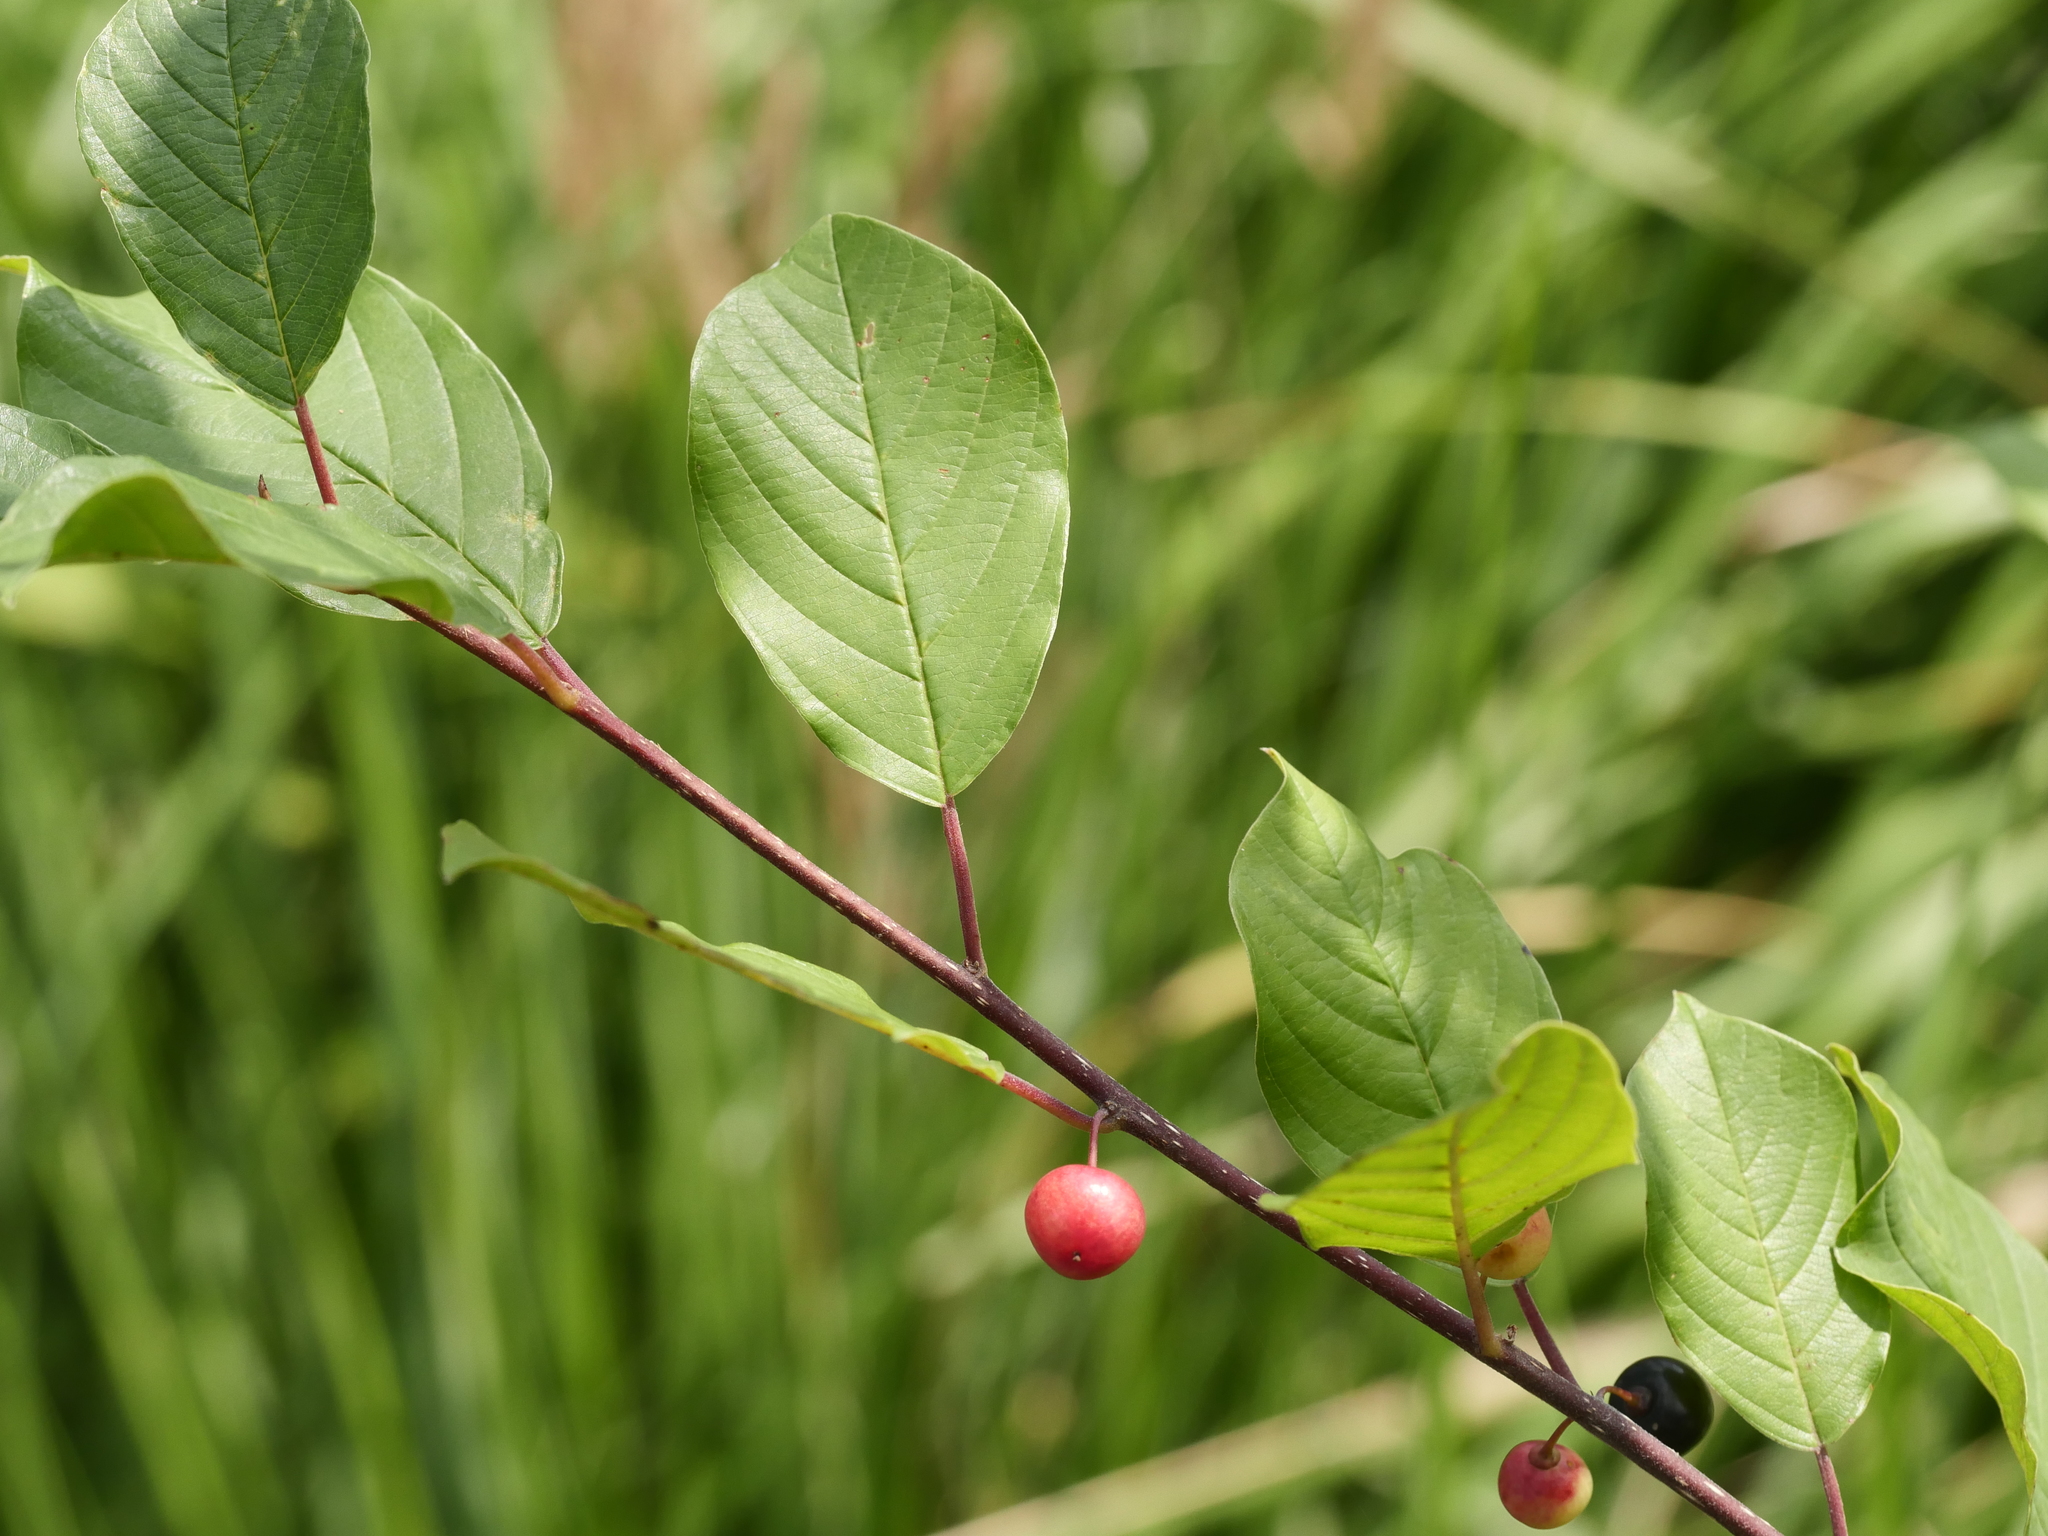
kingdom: Plantae
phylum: Tracheophyta
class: Magnoliopsida
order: Rosales
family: Rhamnaceae
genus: Frangula
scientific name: Frangula alnus
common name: Alder buckthorn
